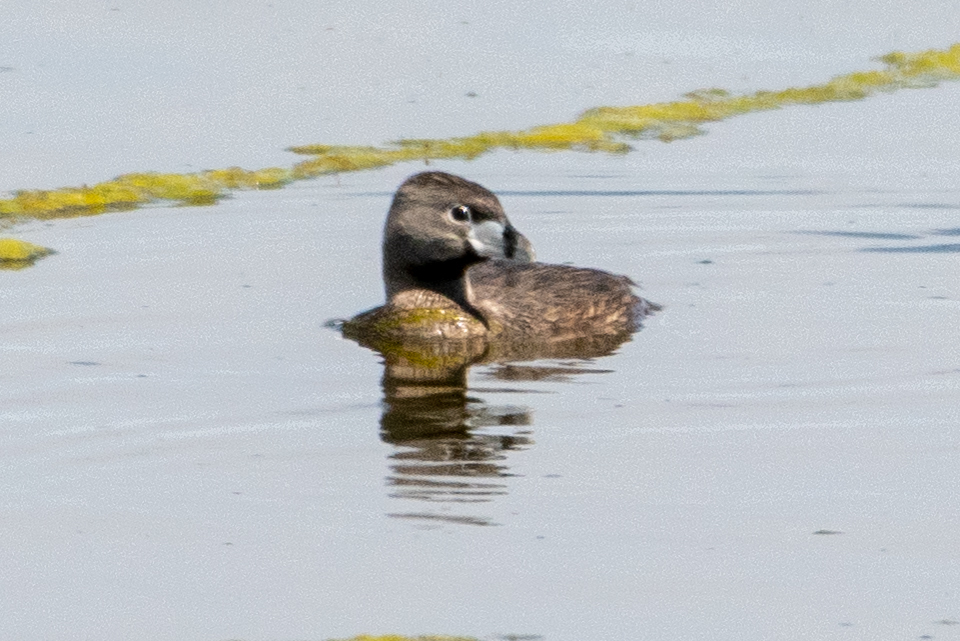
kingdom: Animalia
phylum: Chordata
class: Aves
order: Podicipediformes
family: Podicipedidae
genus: Podilymbus
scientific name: Podilymbus podiceps
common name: Pied-billed grebe
